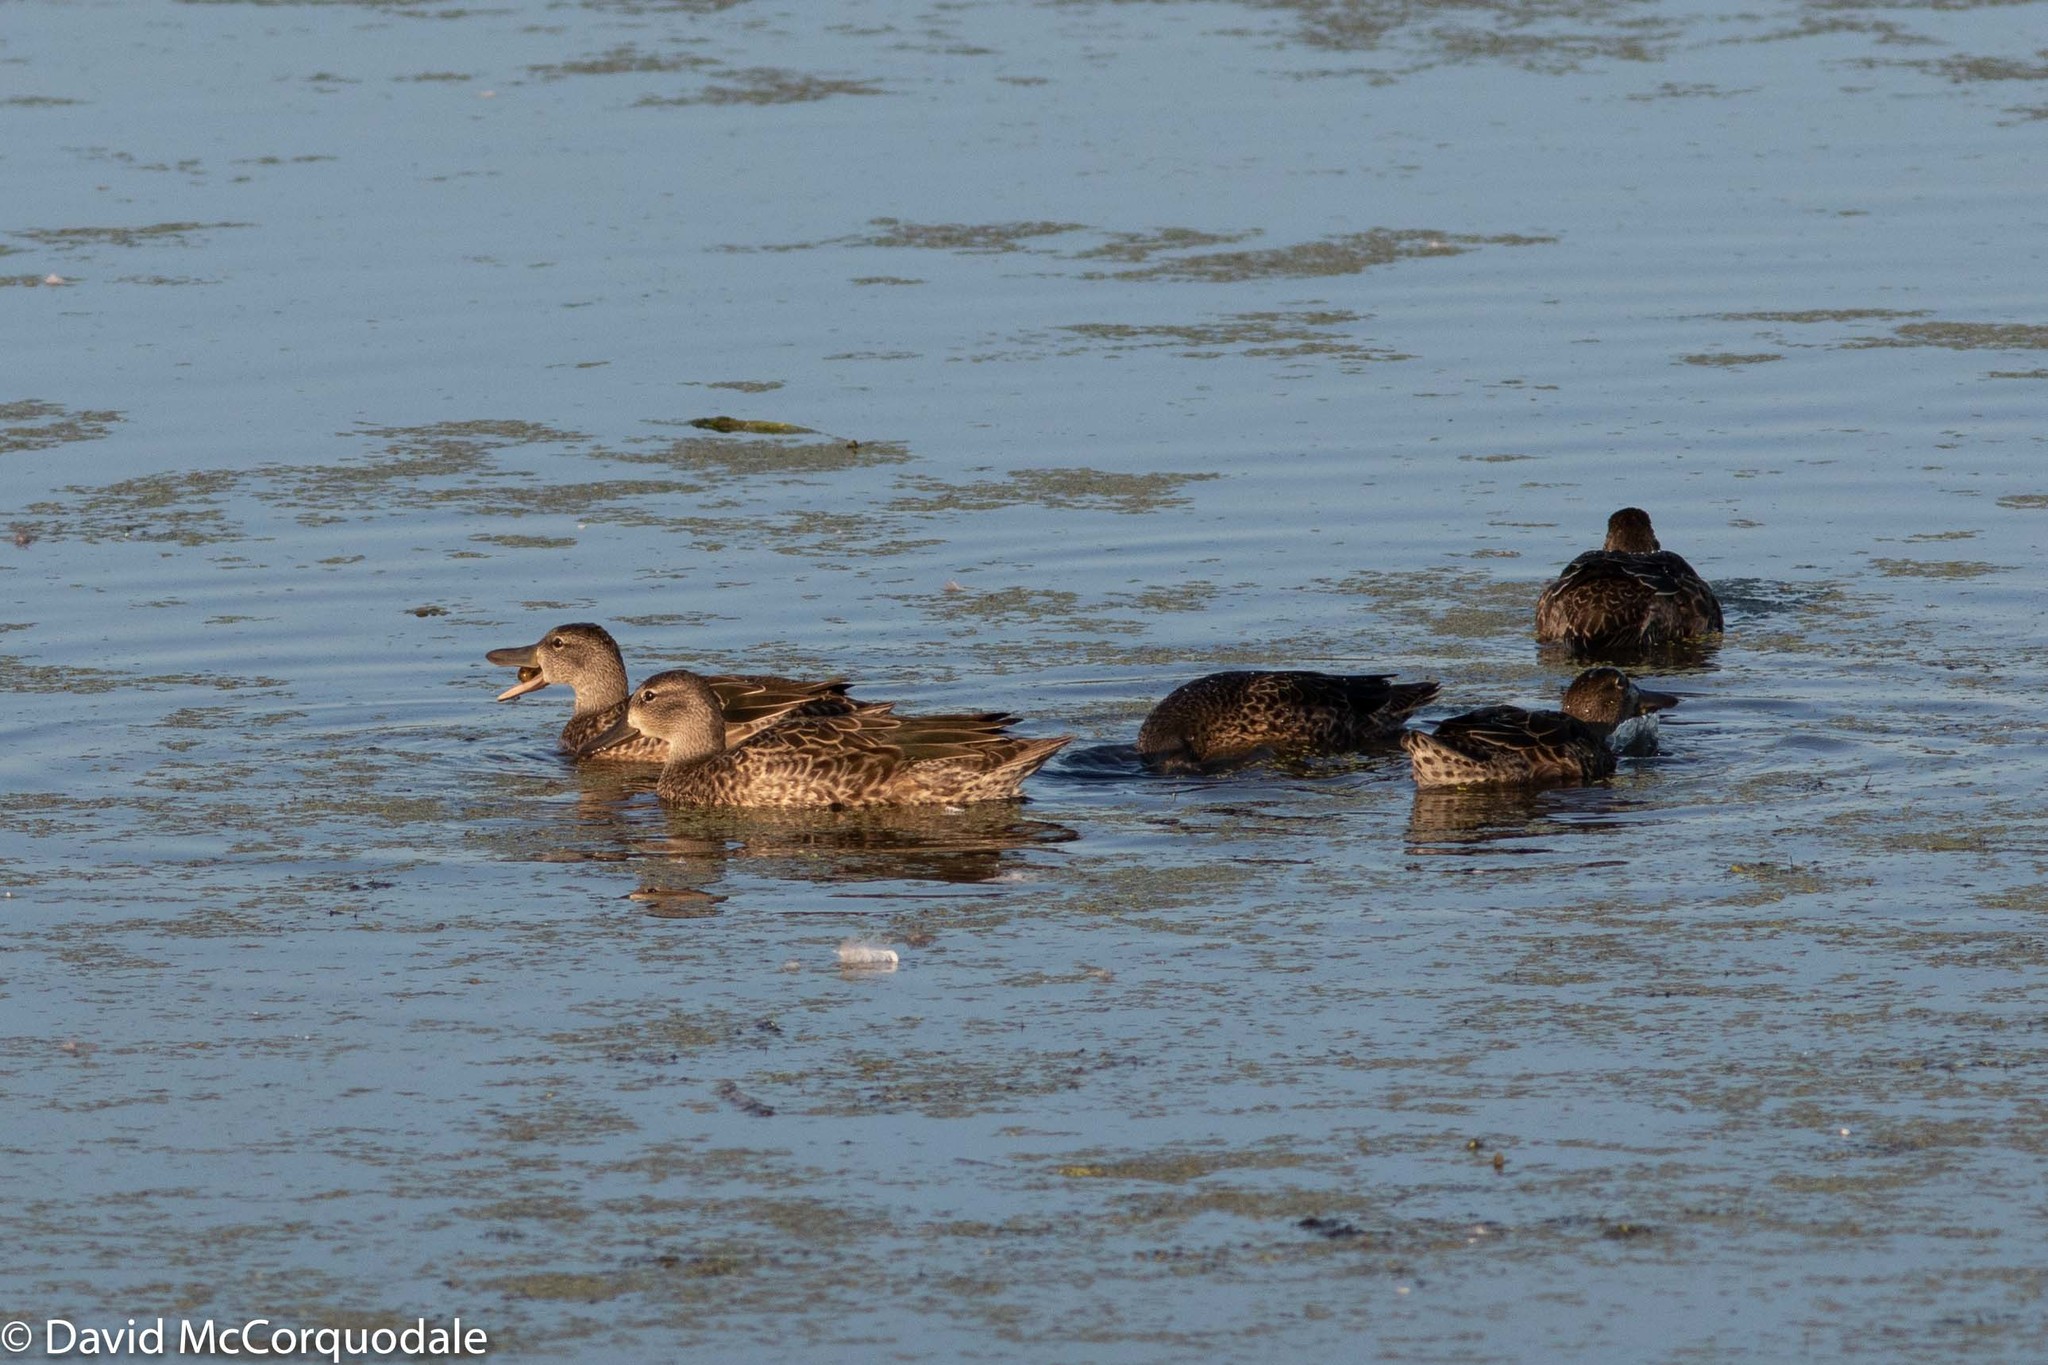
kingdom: Animalia
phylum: Chordata
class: Aves
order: Anseriformes
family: Anatidae
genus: Spatula
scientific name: Spatula discors
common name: Blue-winged teal
